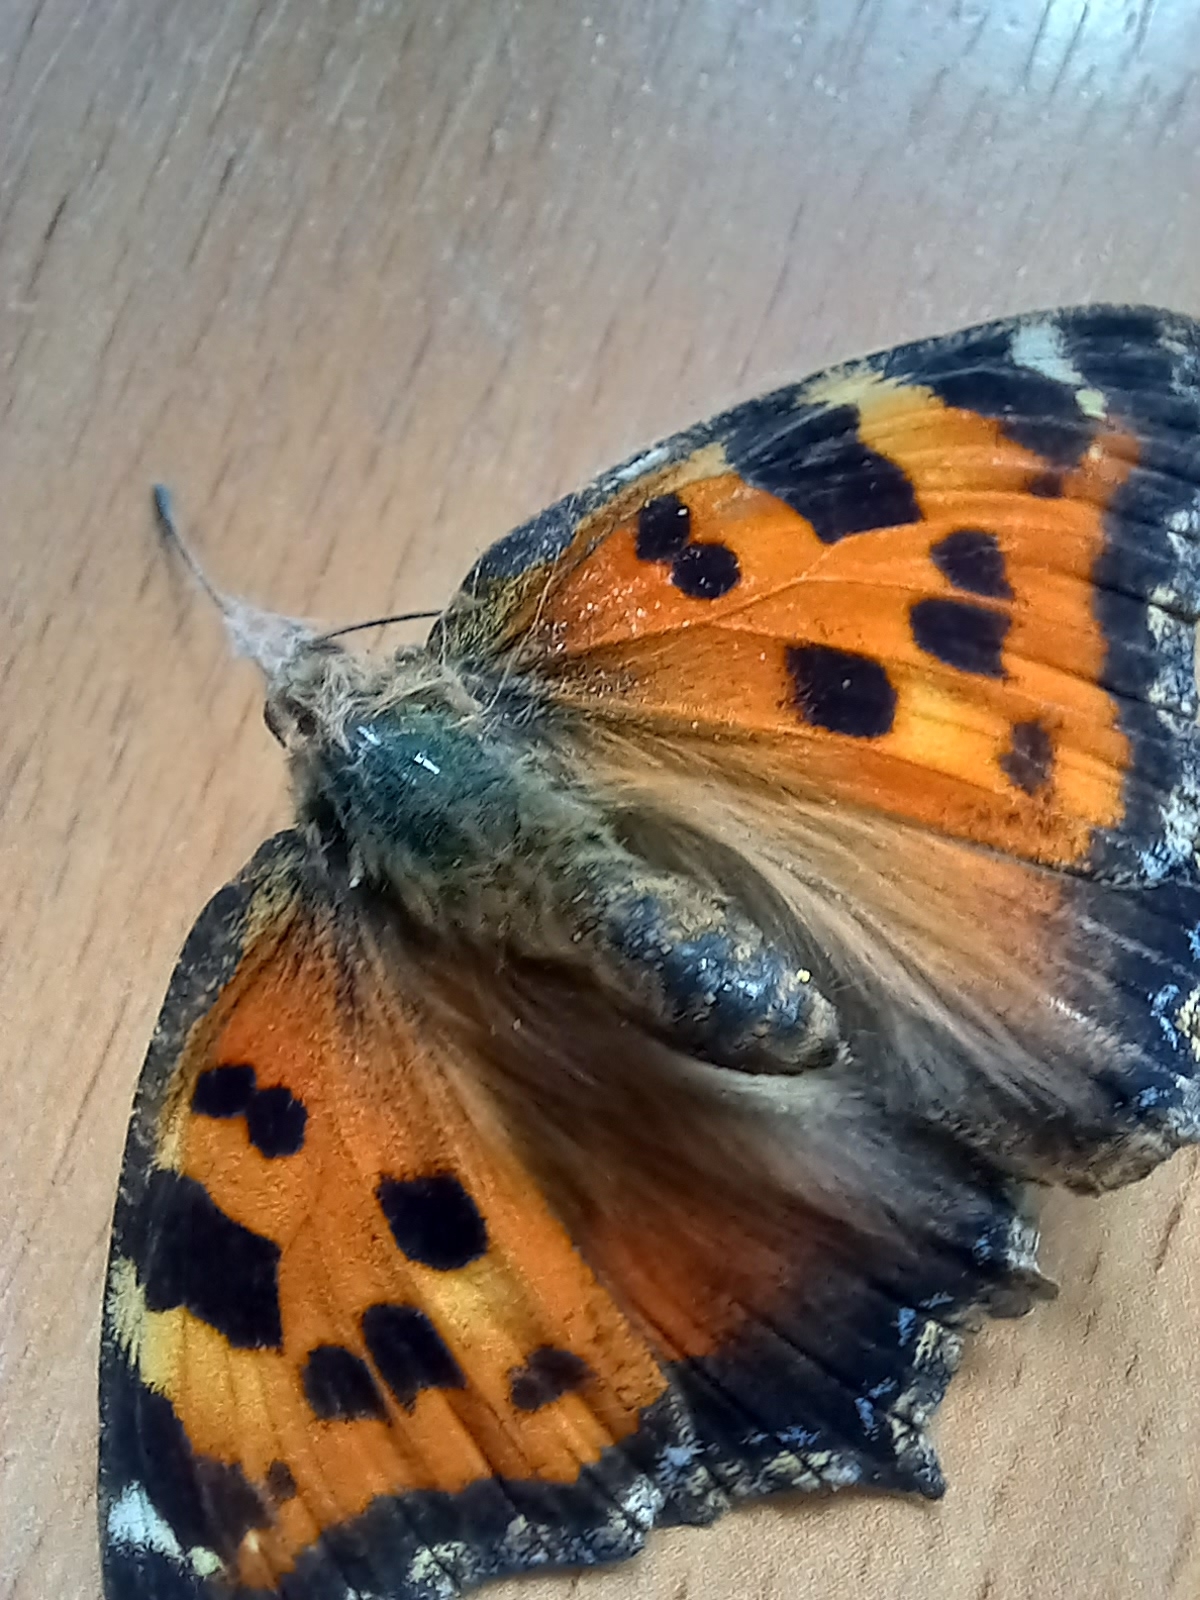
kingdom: Animalia
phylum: Arthropoda
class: Insecta
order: Lepidoptera
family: Nymphalidae
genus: Nymphalis
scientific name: Nymphalis xanthomelas
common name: Scarce tortoiseshell
